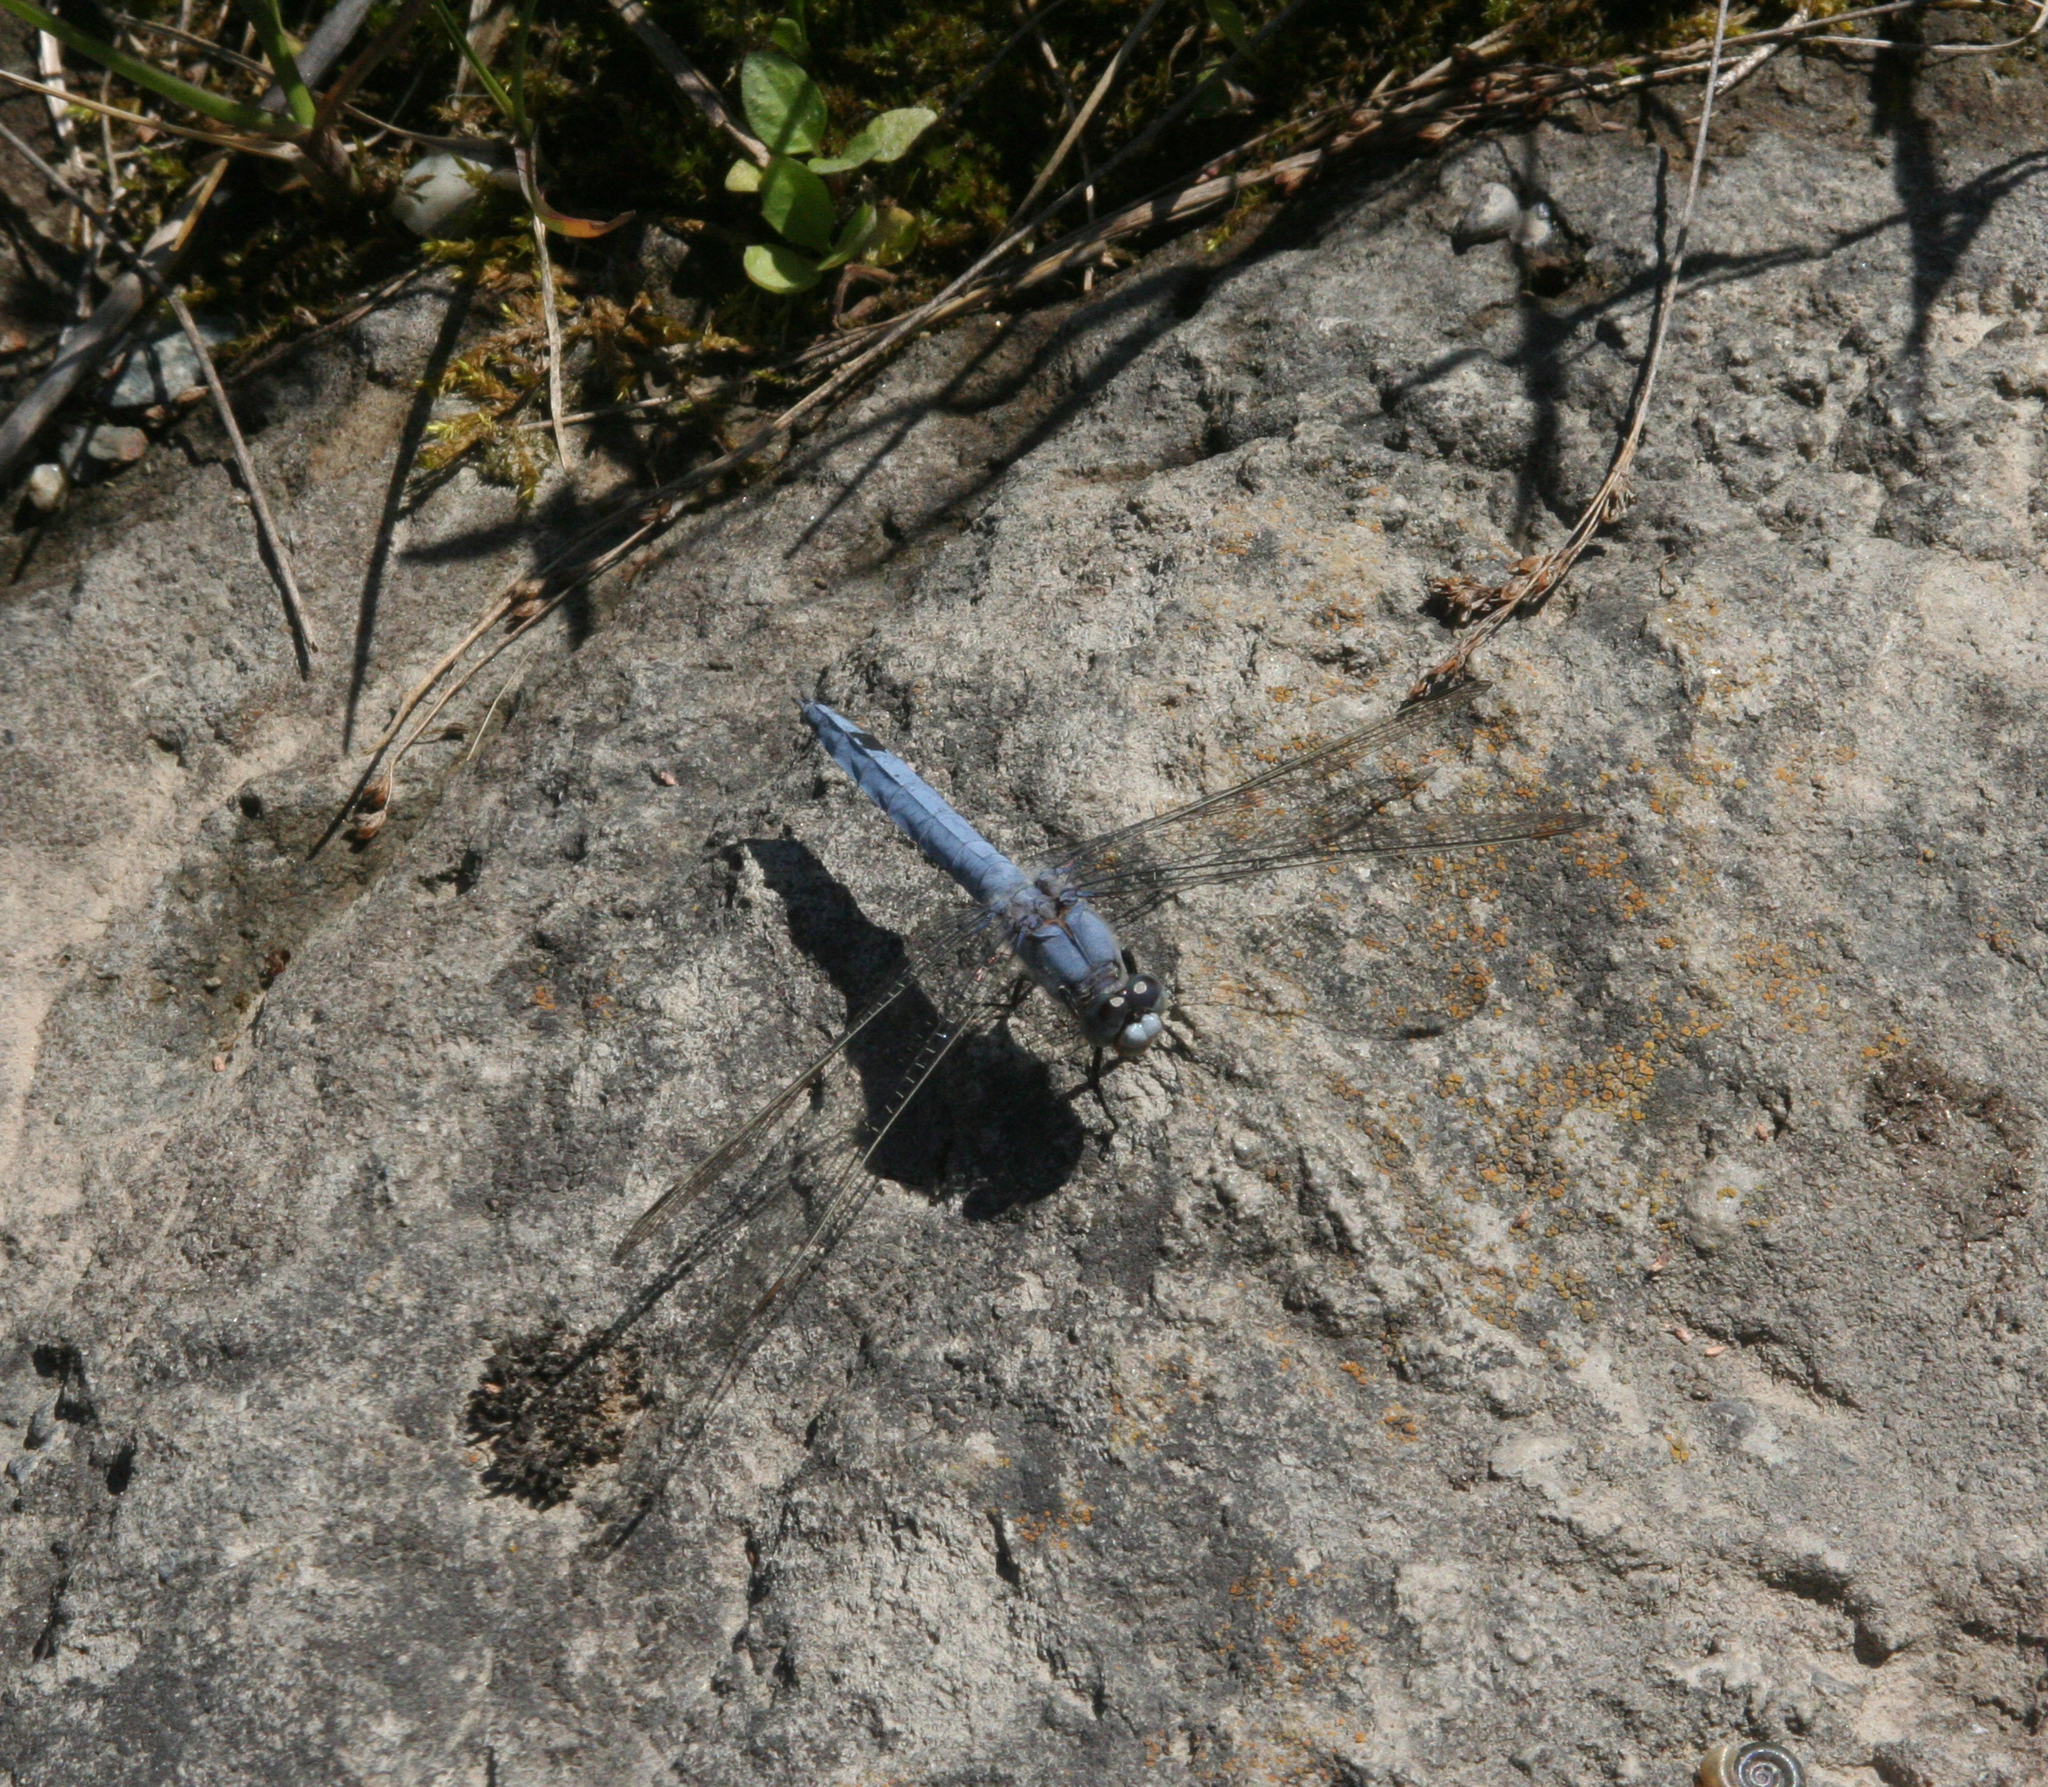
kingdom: Animalia
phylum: Arthropoda
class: Insecta
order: Odonata
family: Libellulidae
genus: Orthetrum
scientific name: Orthetrum brunneum
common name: Southern skimmer
